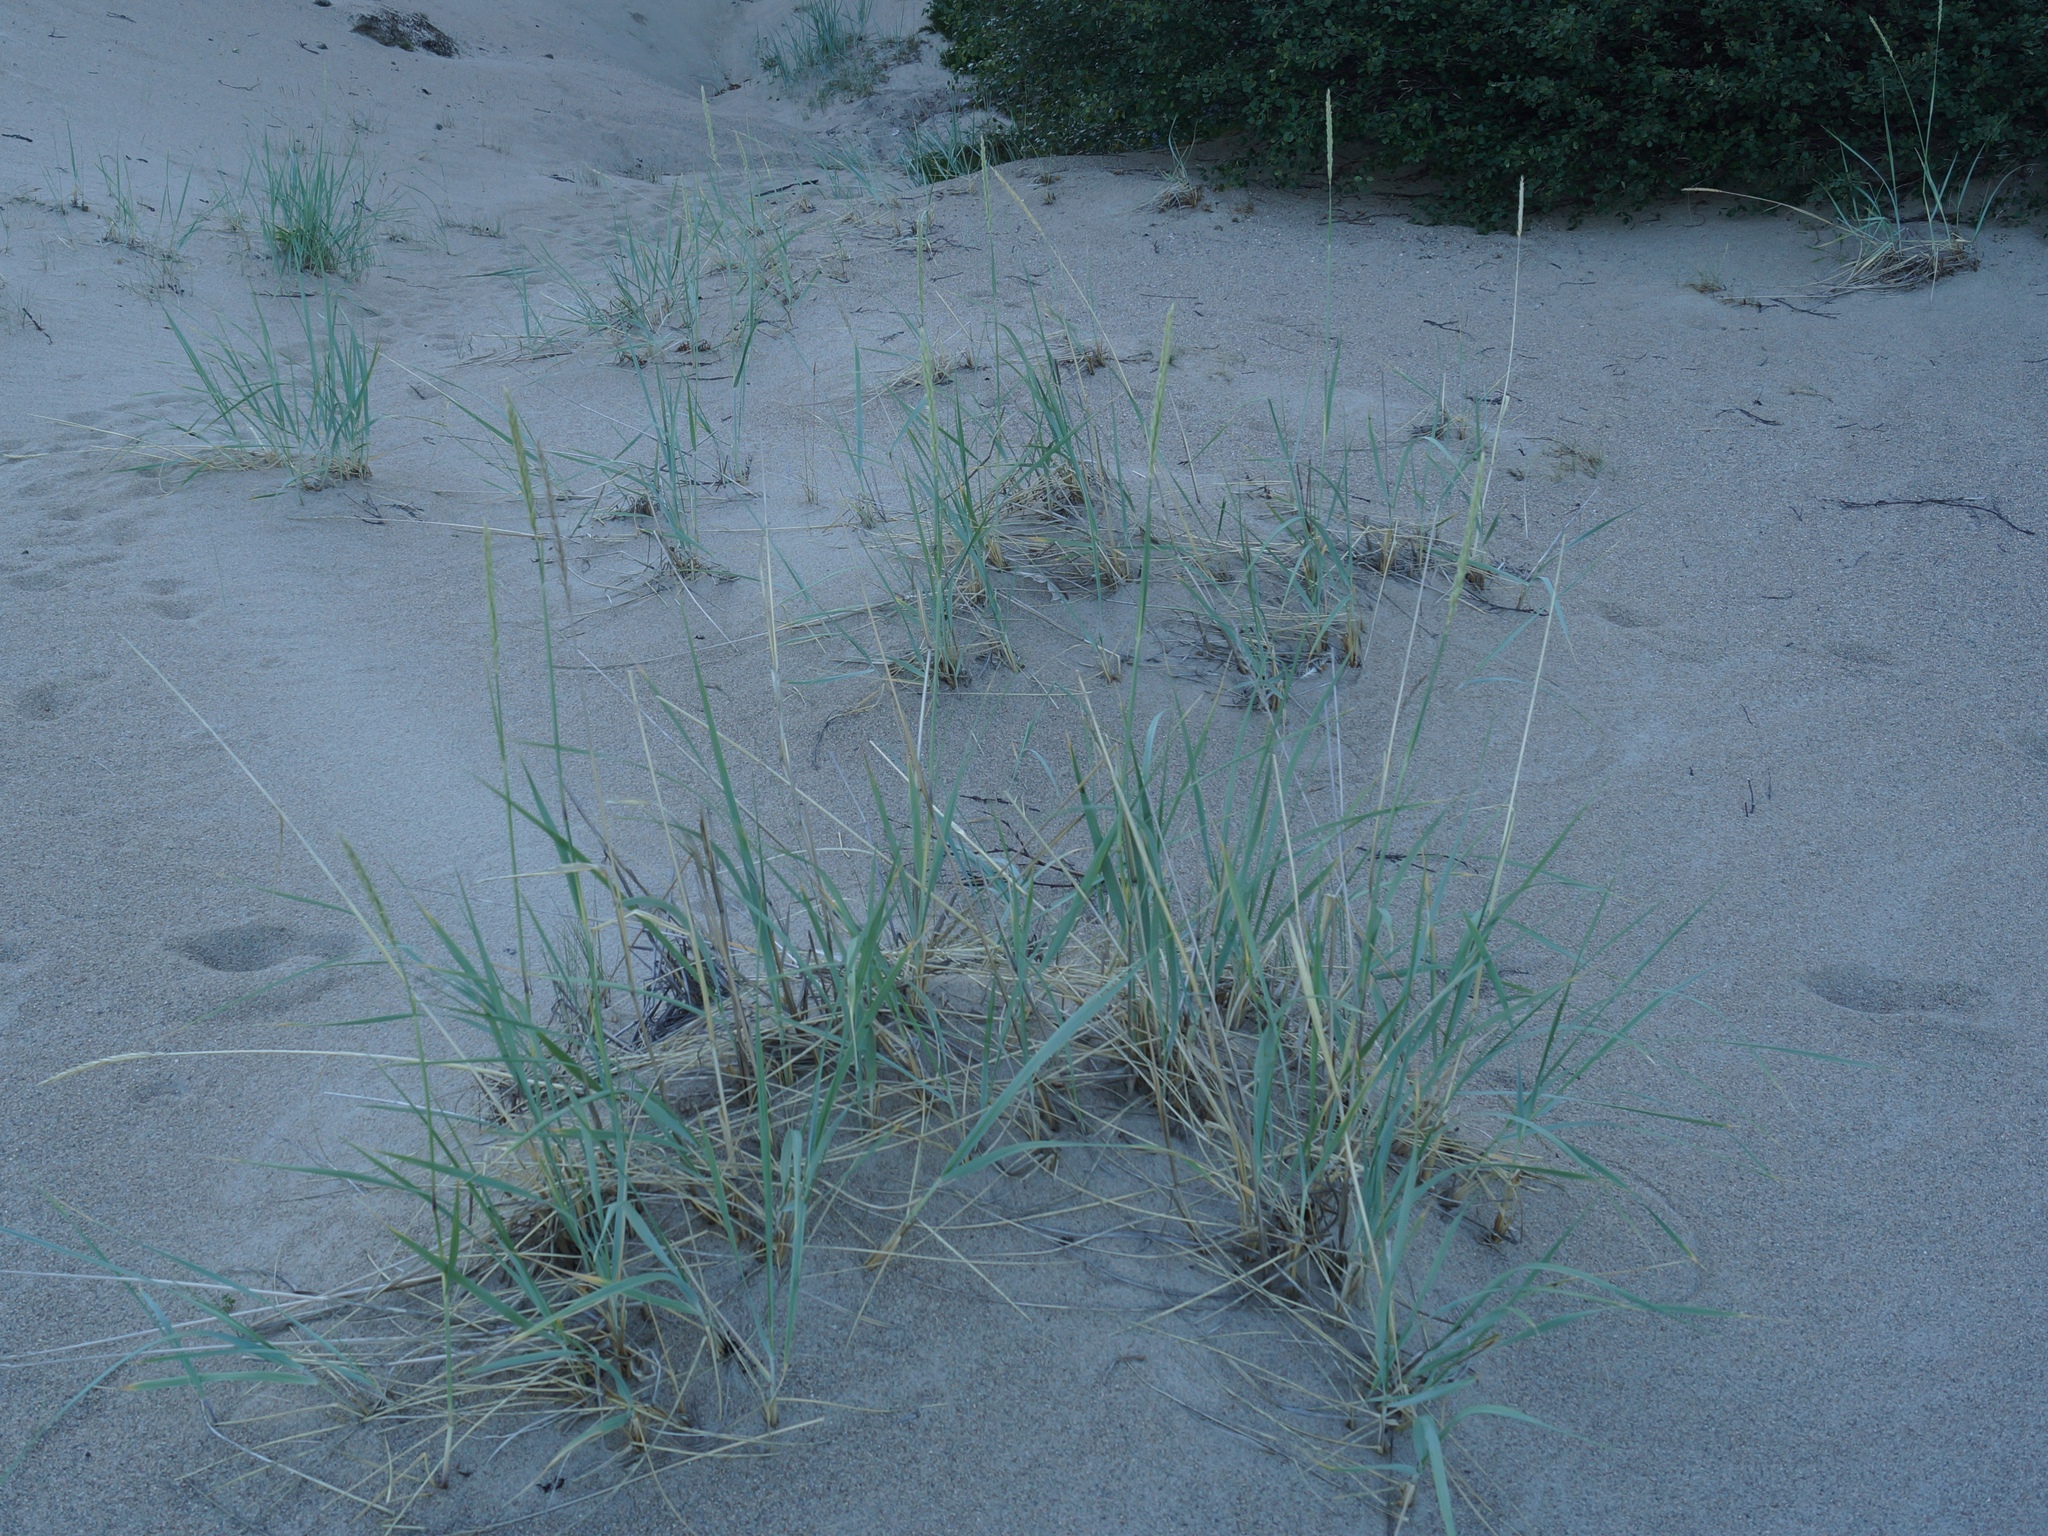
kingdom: Plantae
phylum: Tracheophyta
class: Liliopsida
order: Poales
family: Poaceae
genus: Leymus
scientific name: Leymus arenarius
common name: Lyme-grass
